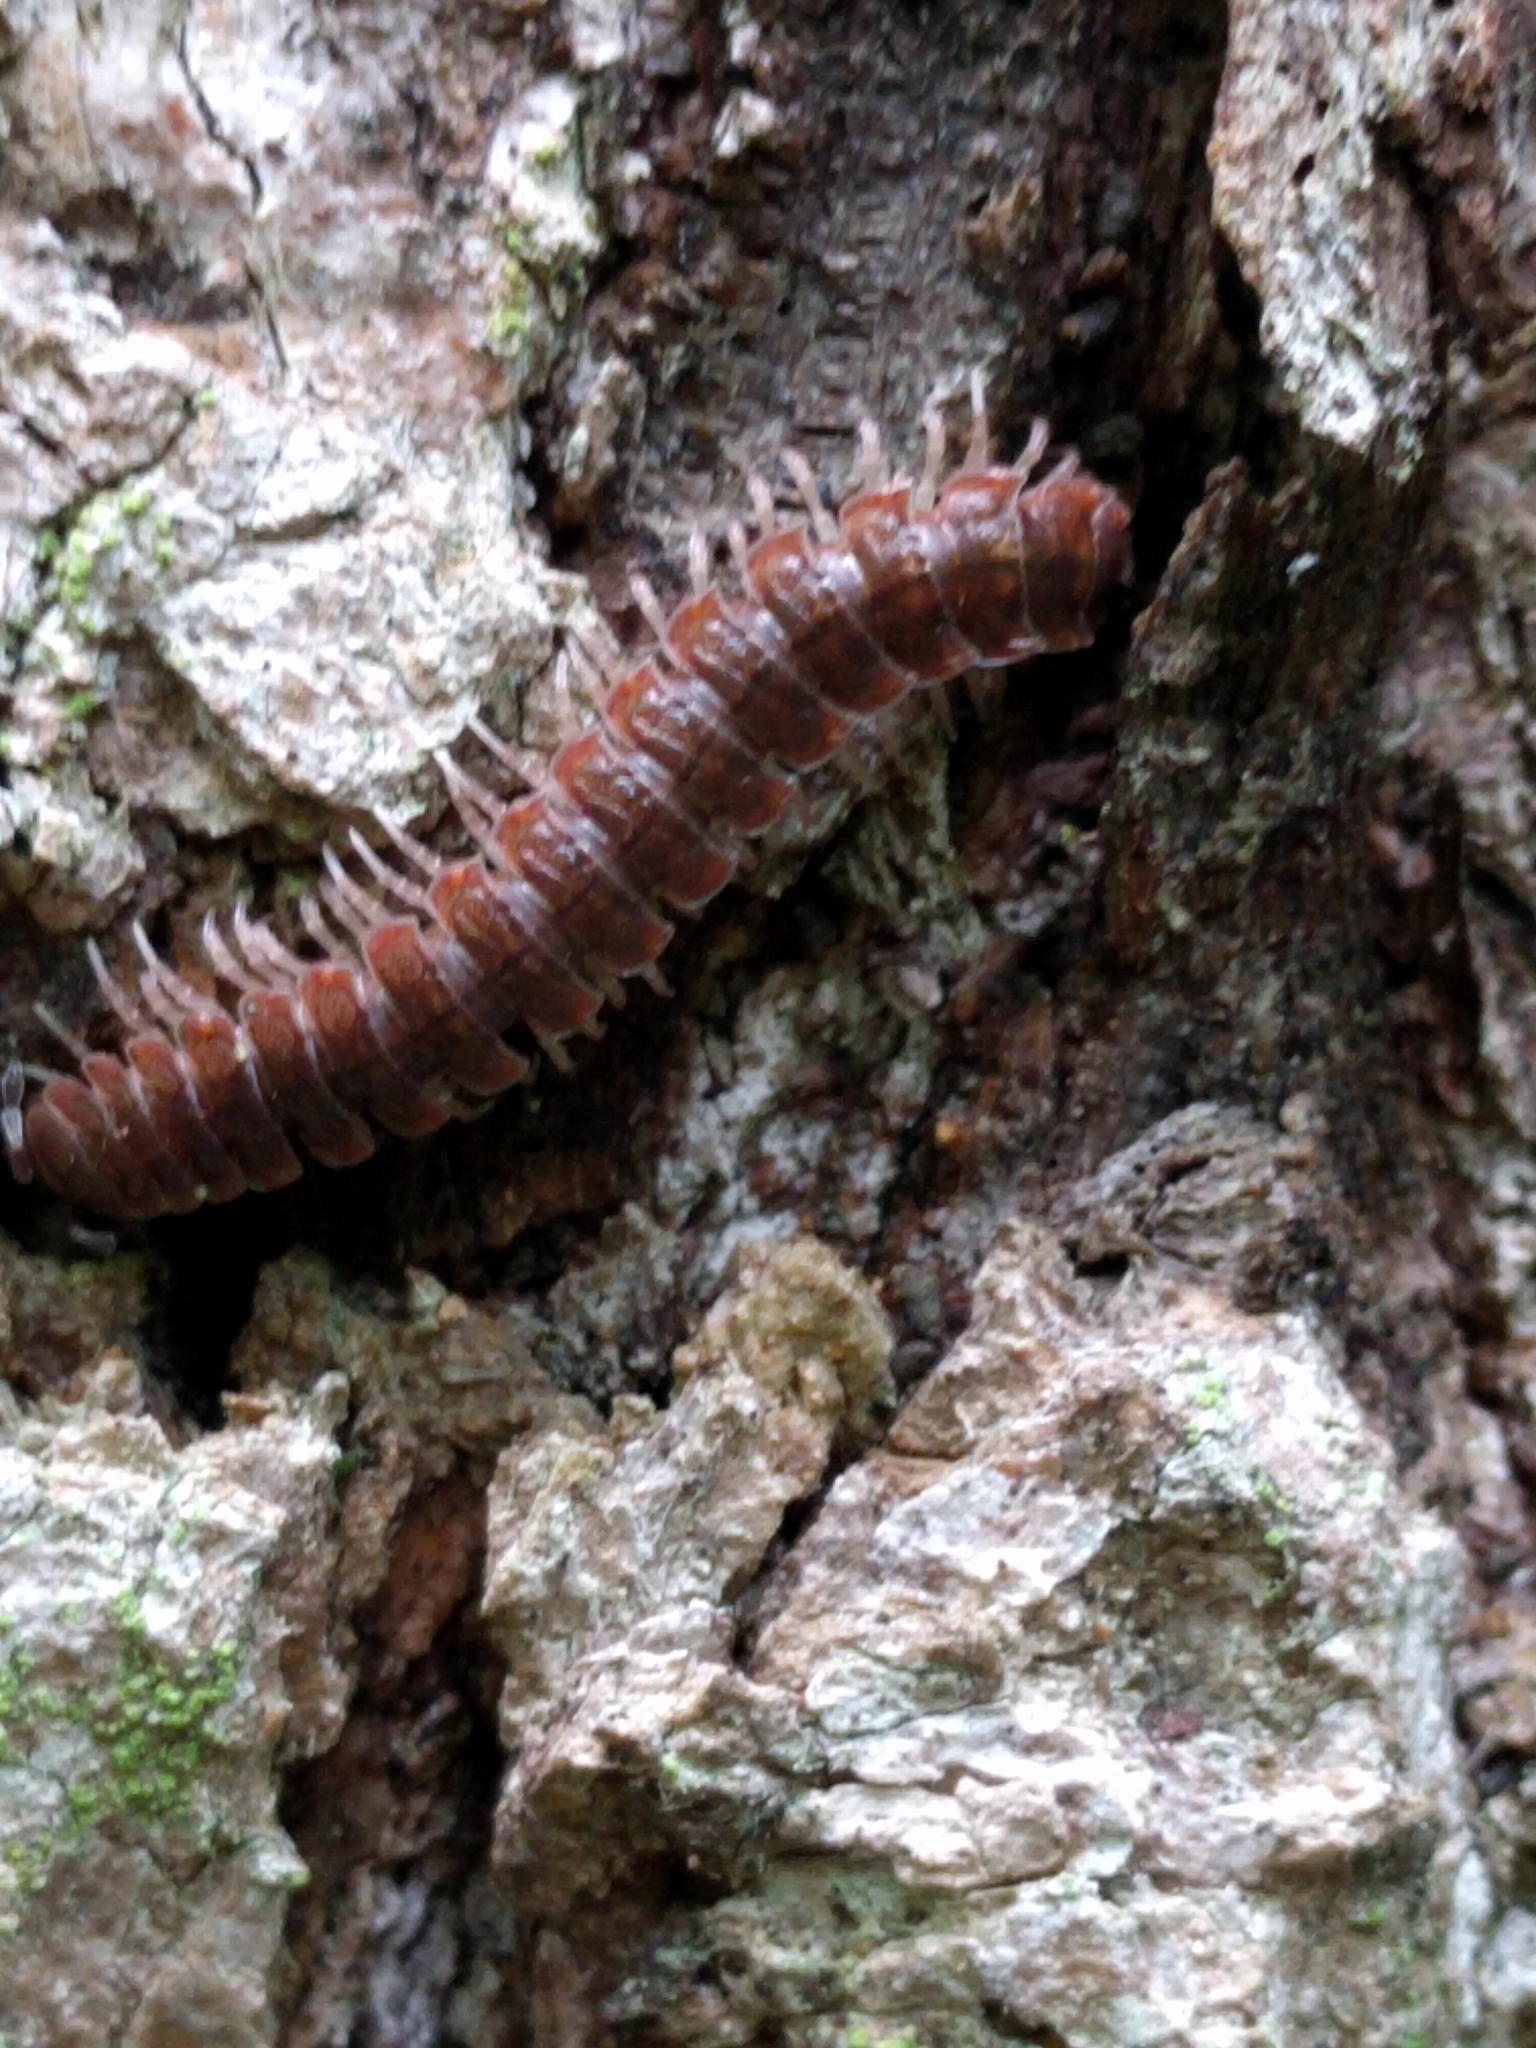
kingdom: Animalia
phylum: Arthropoda
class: Diplopoda
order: Polydesmida
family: Polydesmidae
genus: Pseudopolydesmus
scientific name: Pseudopolydesmus serratus
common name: Common pink flat-back millipede
